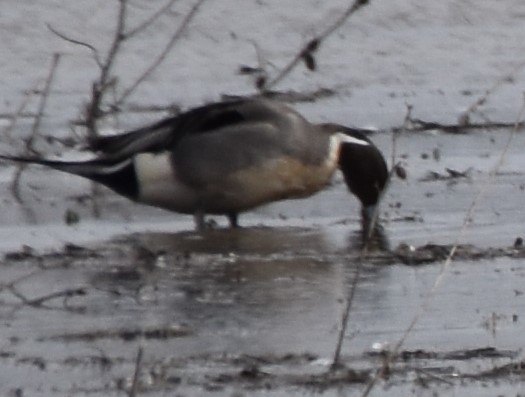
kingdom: Animalia
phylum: Chordata
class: Aves
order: Anseriformes
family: Anatidae
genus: Anas
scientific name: Anas acuta
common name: Northern pintail
